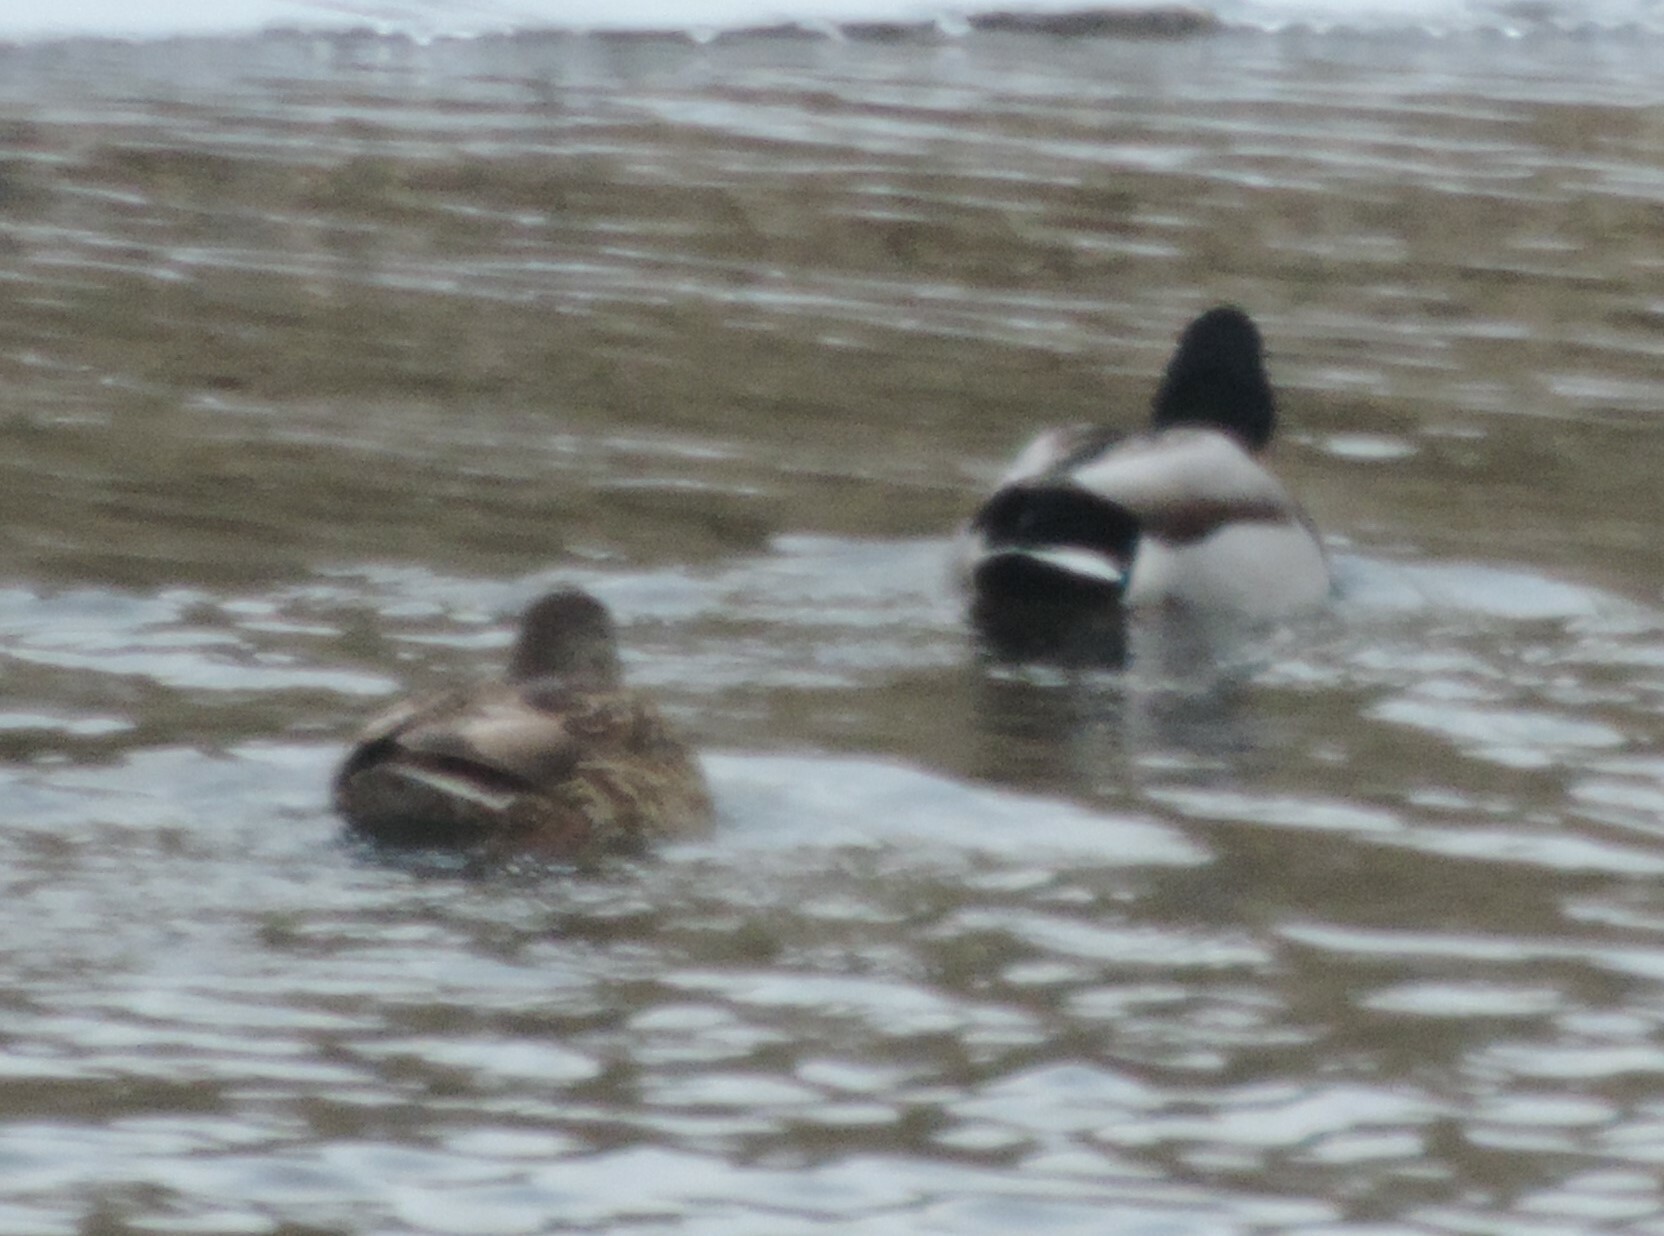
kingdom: Animalia
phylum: Chordata
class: Aves
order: Anseriformes
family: Anatidae
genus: Anas
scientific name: Anas platyrhynchos
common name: Mallard
